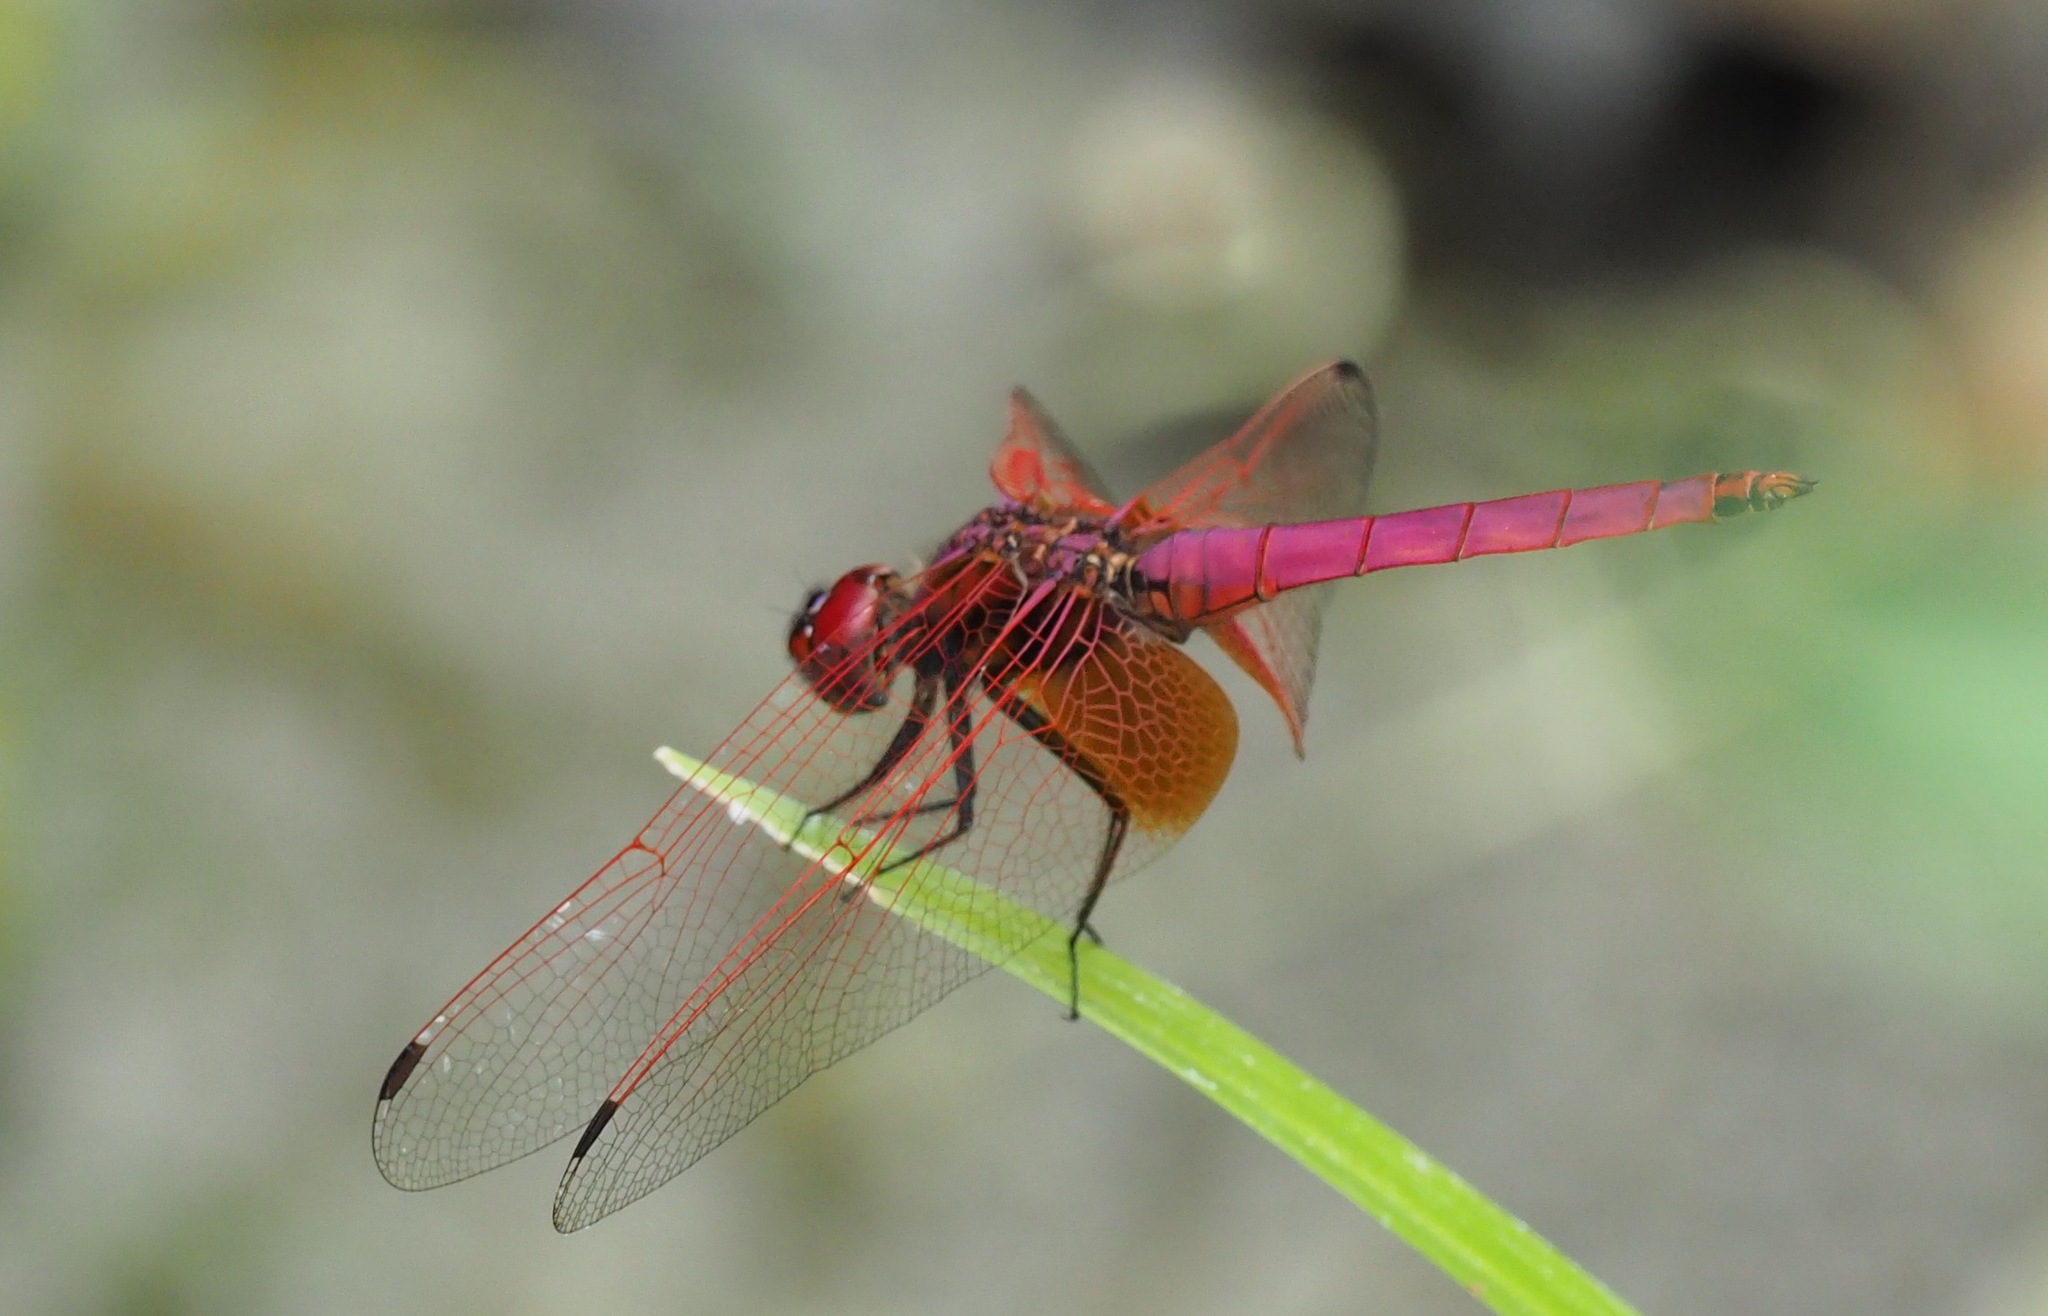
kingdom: Animalia
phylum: Arthropoda
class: Insecta
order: Odonata
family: Libellulidae
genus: Trithemis
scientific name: Trithemis aurora
